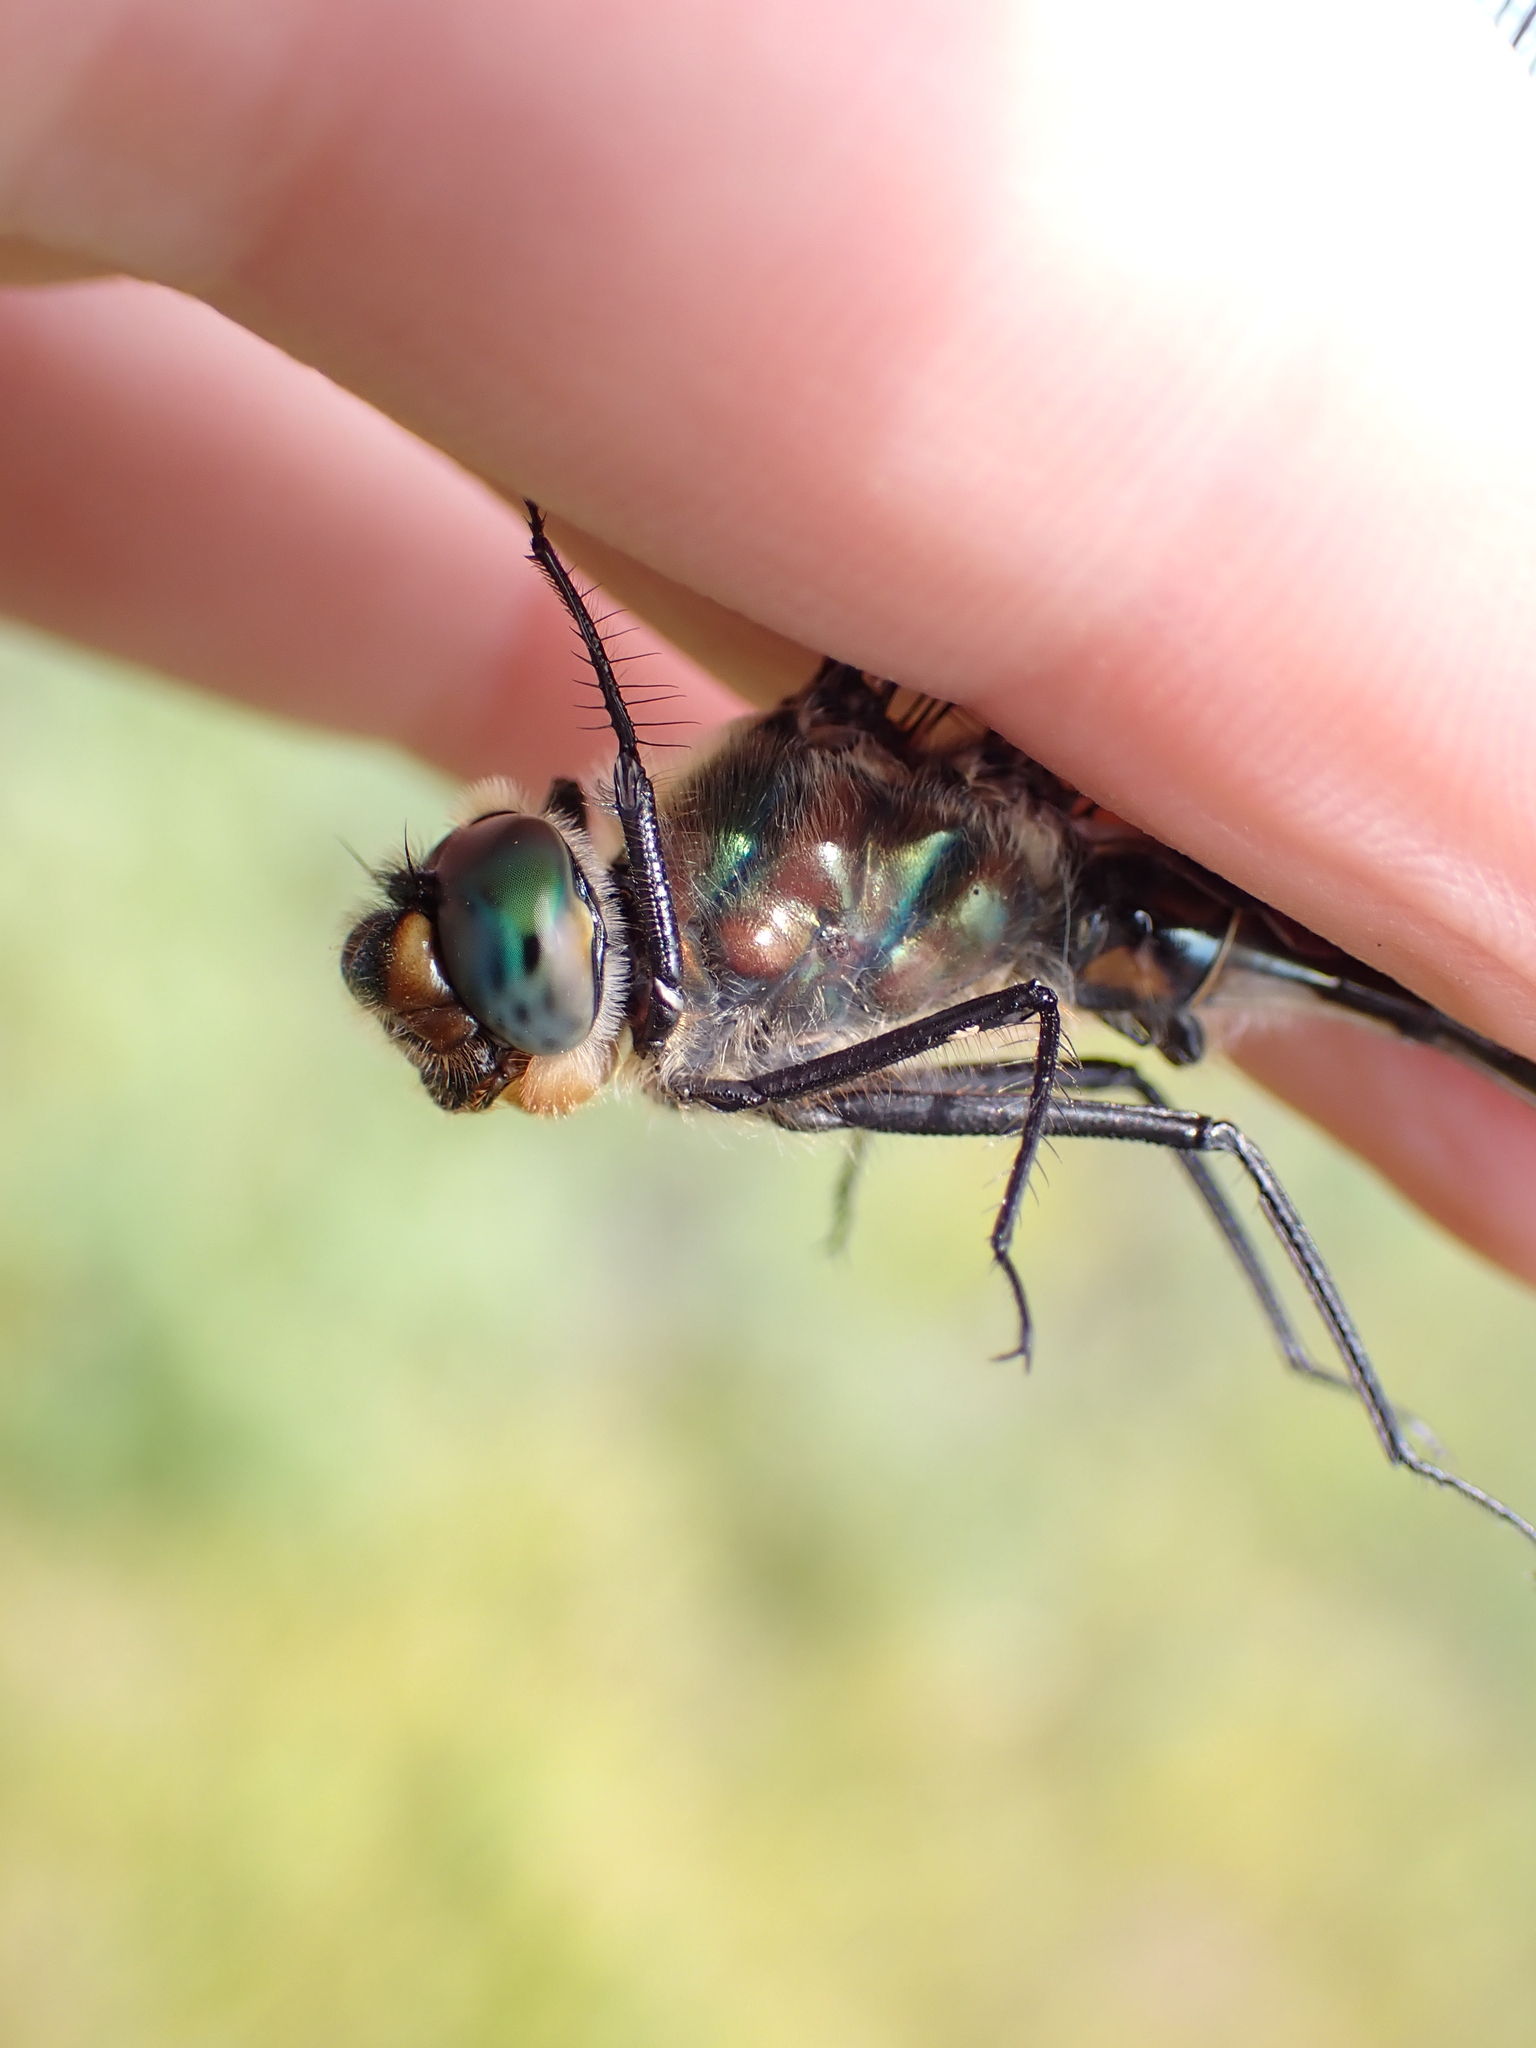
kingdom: Animalia
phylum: Arthropoda
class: Insecta
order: Odonata
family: Corduliidae
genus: Cordulia
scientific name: Cordulia shurtleffii
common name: American emerald
